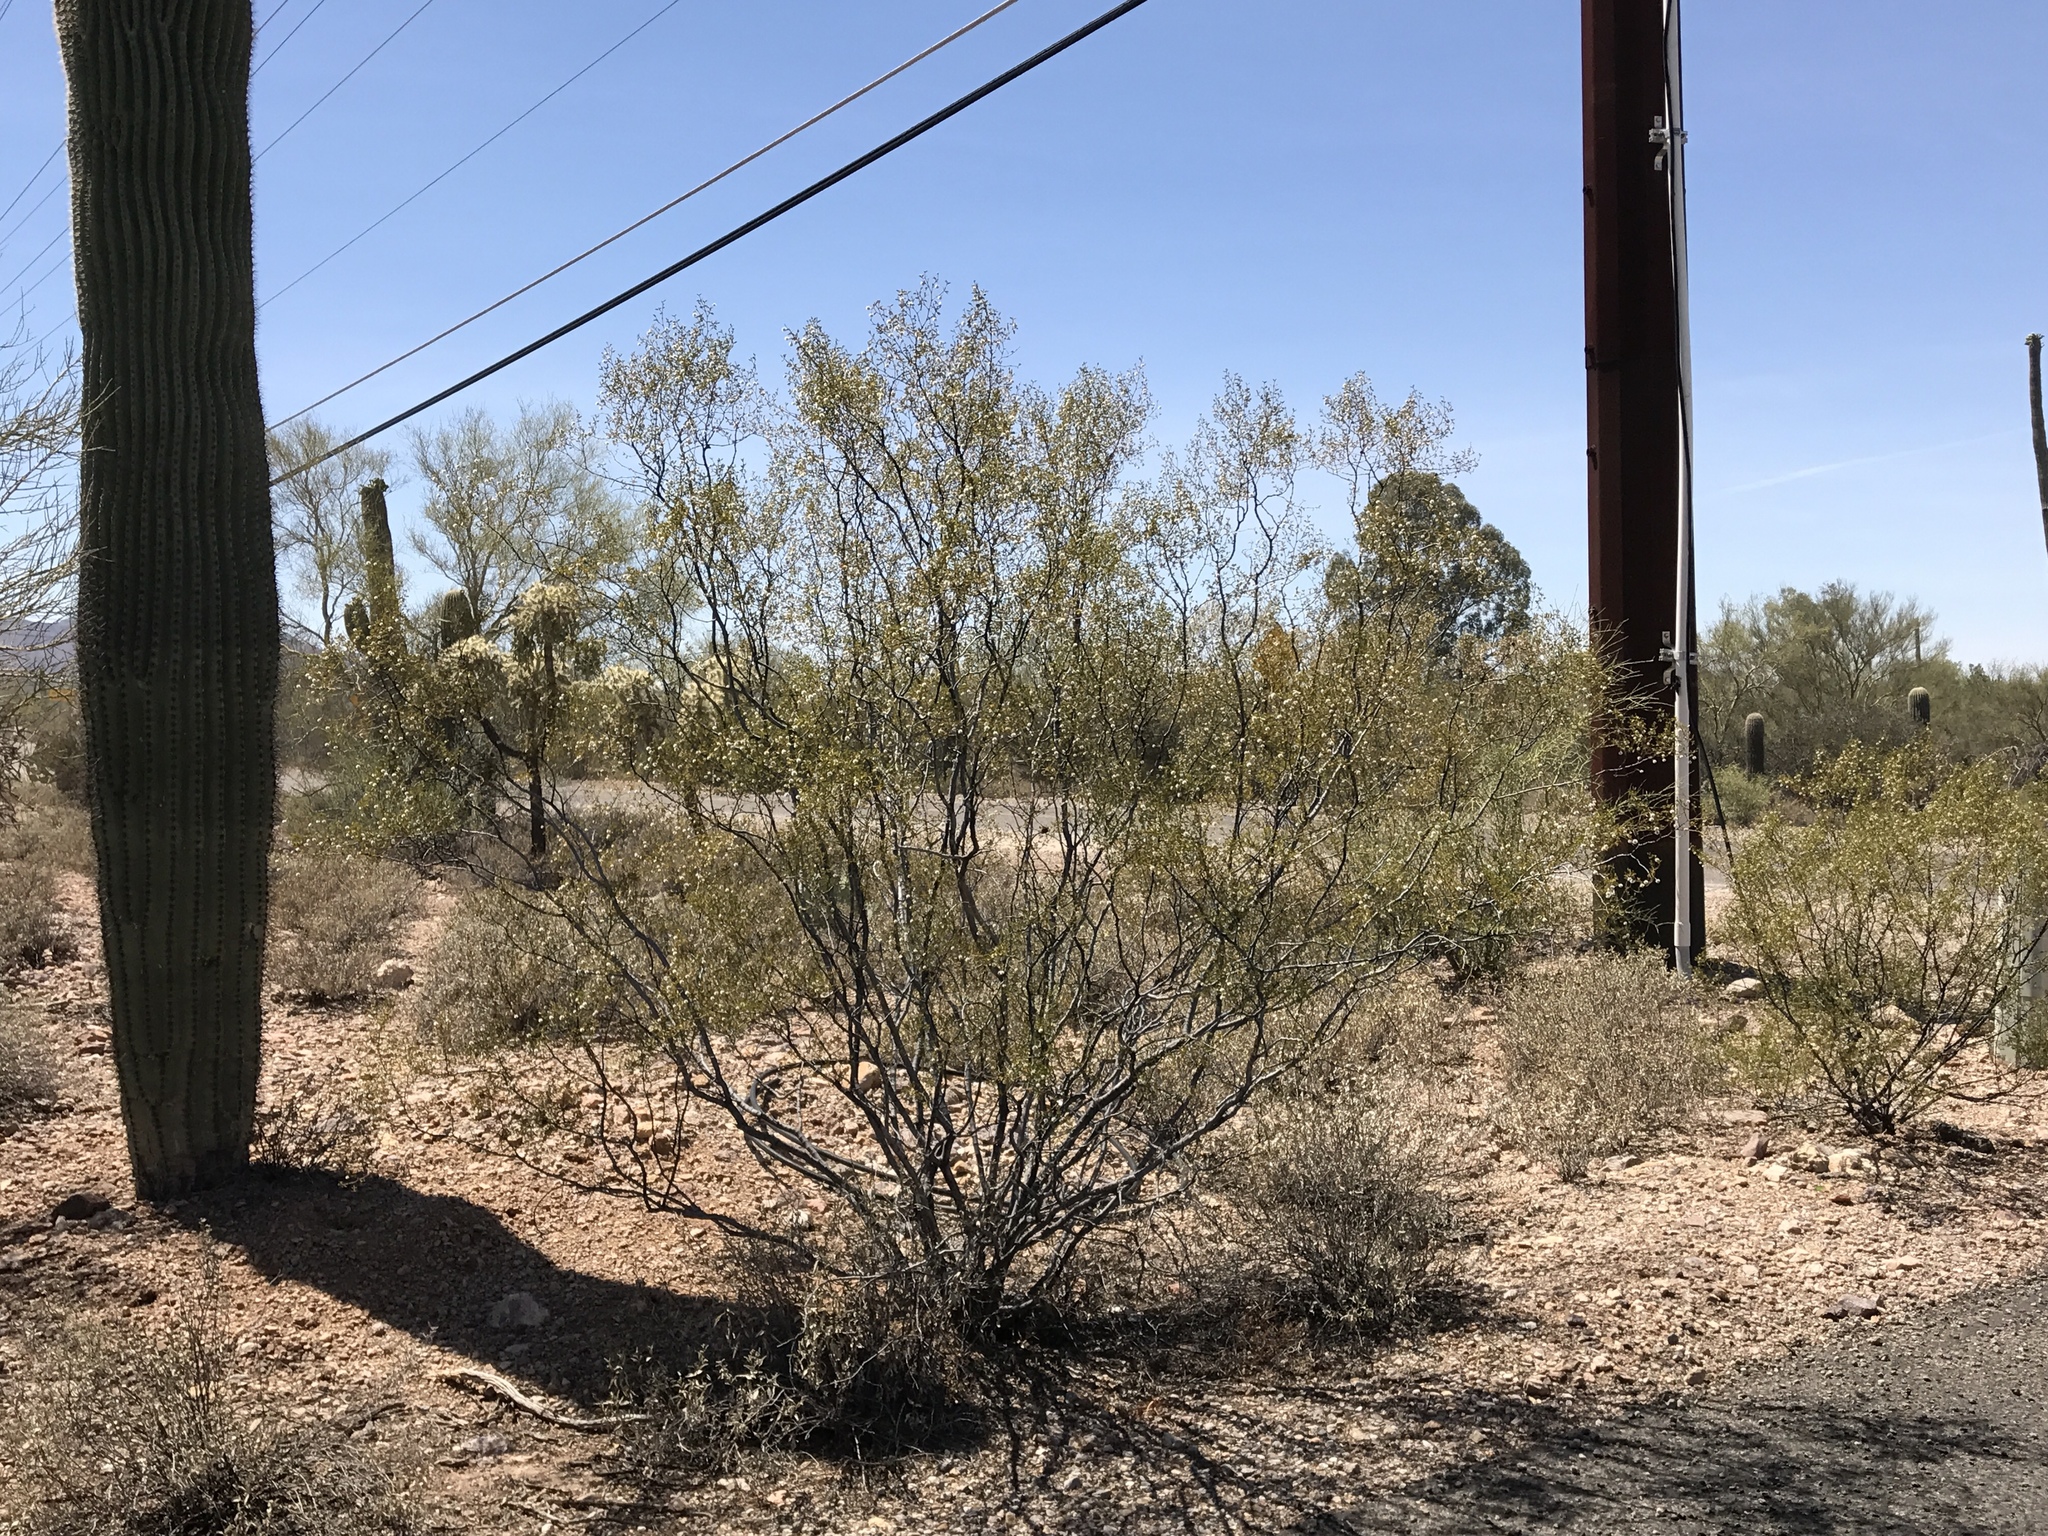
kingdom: Plantae
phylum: Tracheophyta
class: Magnoliopsida
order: Zygophyllales
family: Zygophyllaceae
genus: Larrea
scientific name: Larrea tridentata
